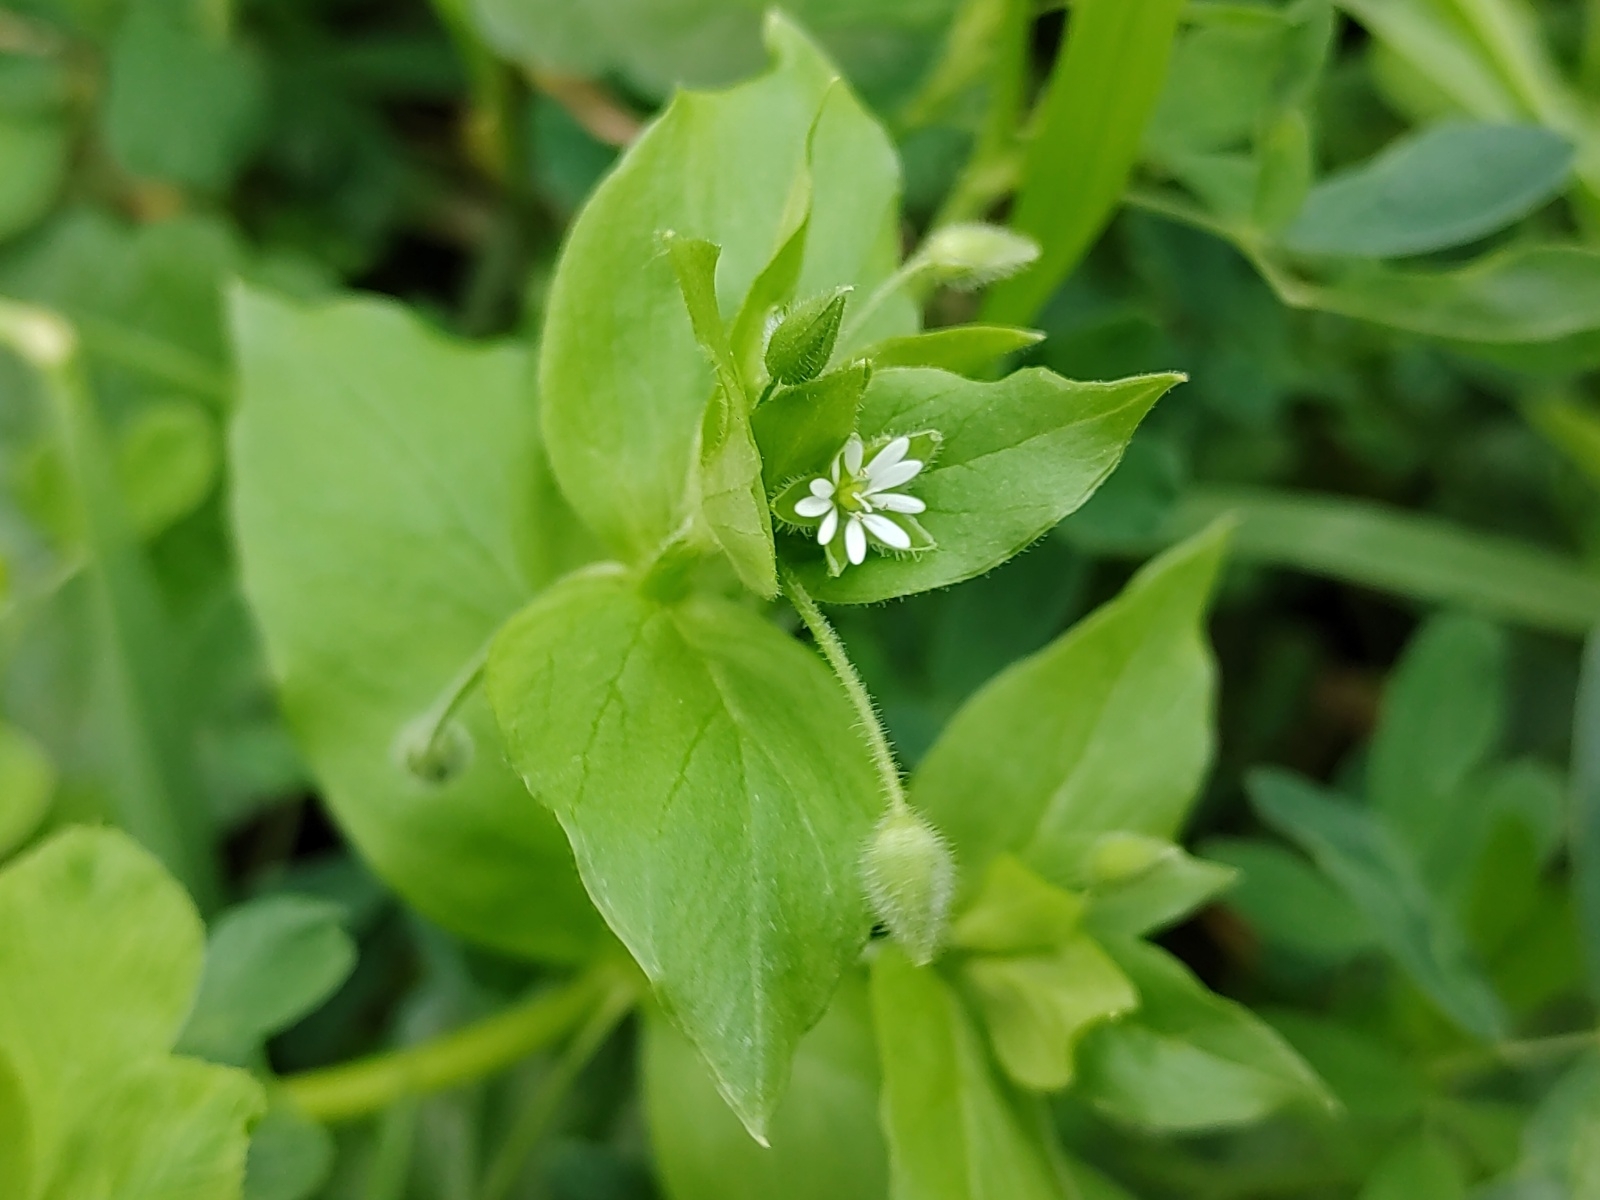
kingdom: Plantae
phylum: Tracheophyta
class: Magnoliopsida
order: Caryophyllales
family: Caryophyllaceae
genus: Stellaria
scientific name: Stellaria media
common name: Common chickweed
